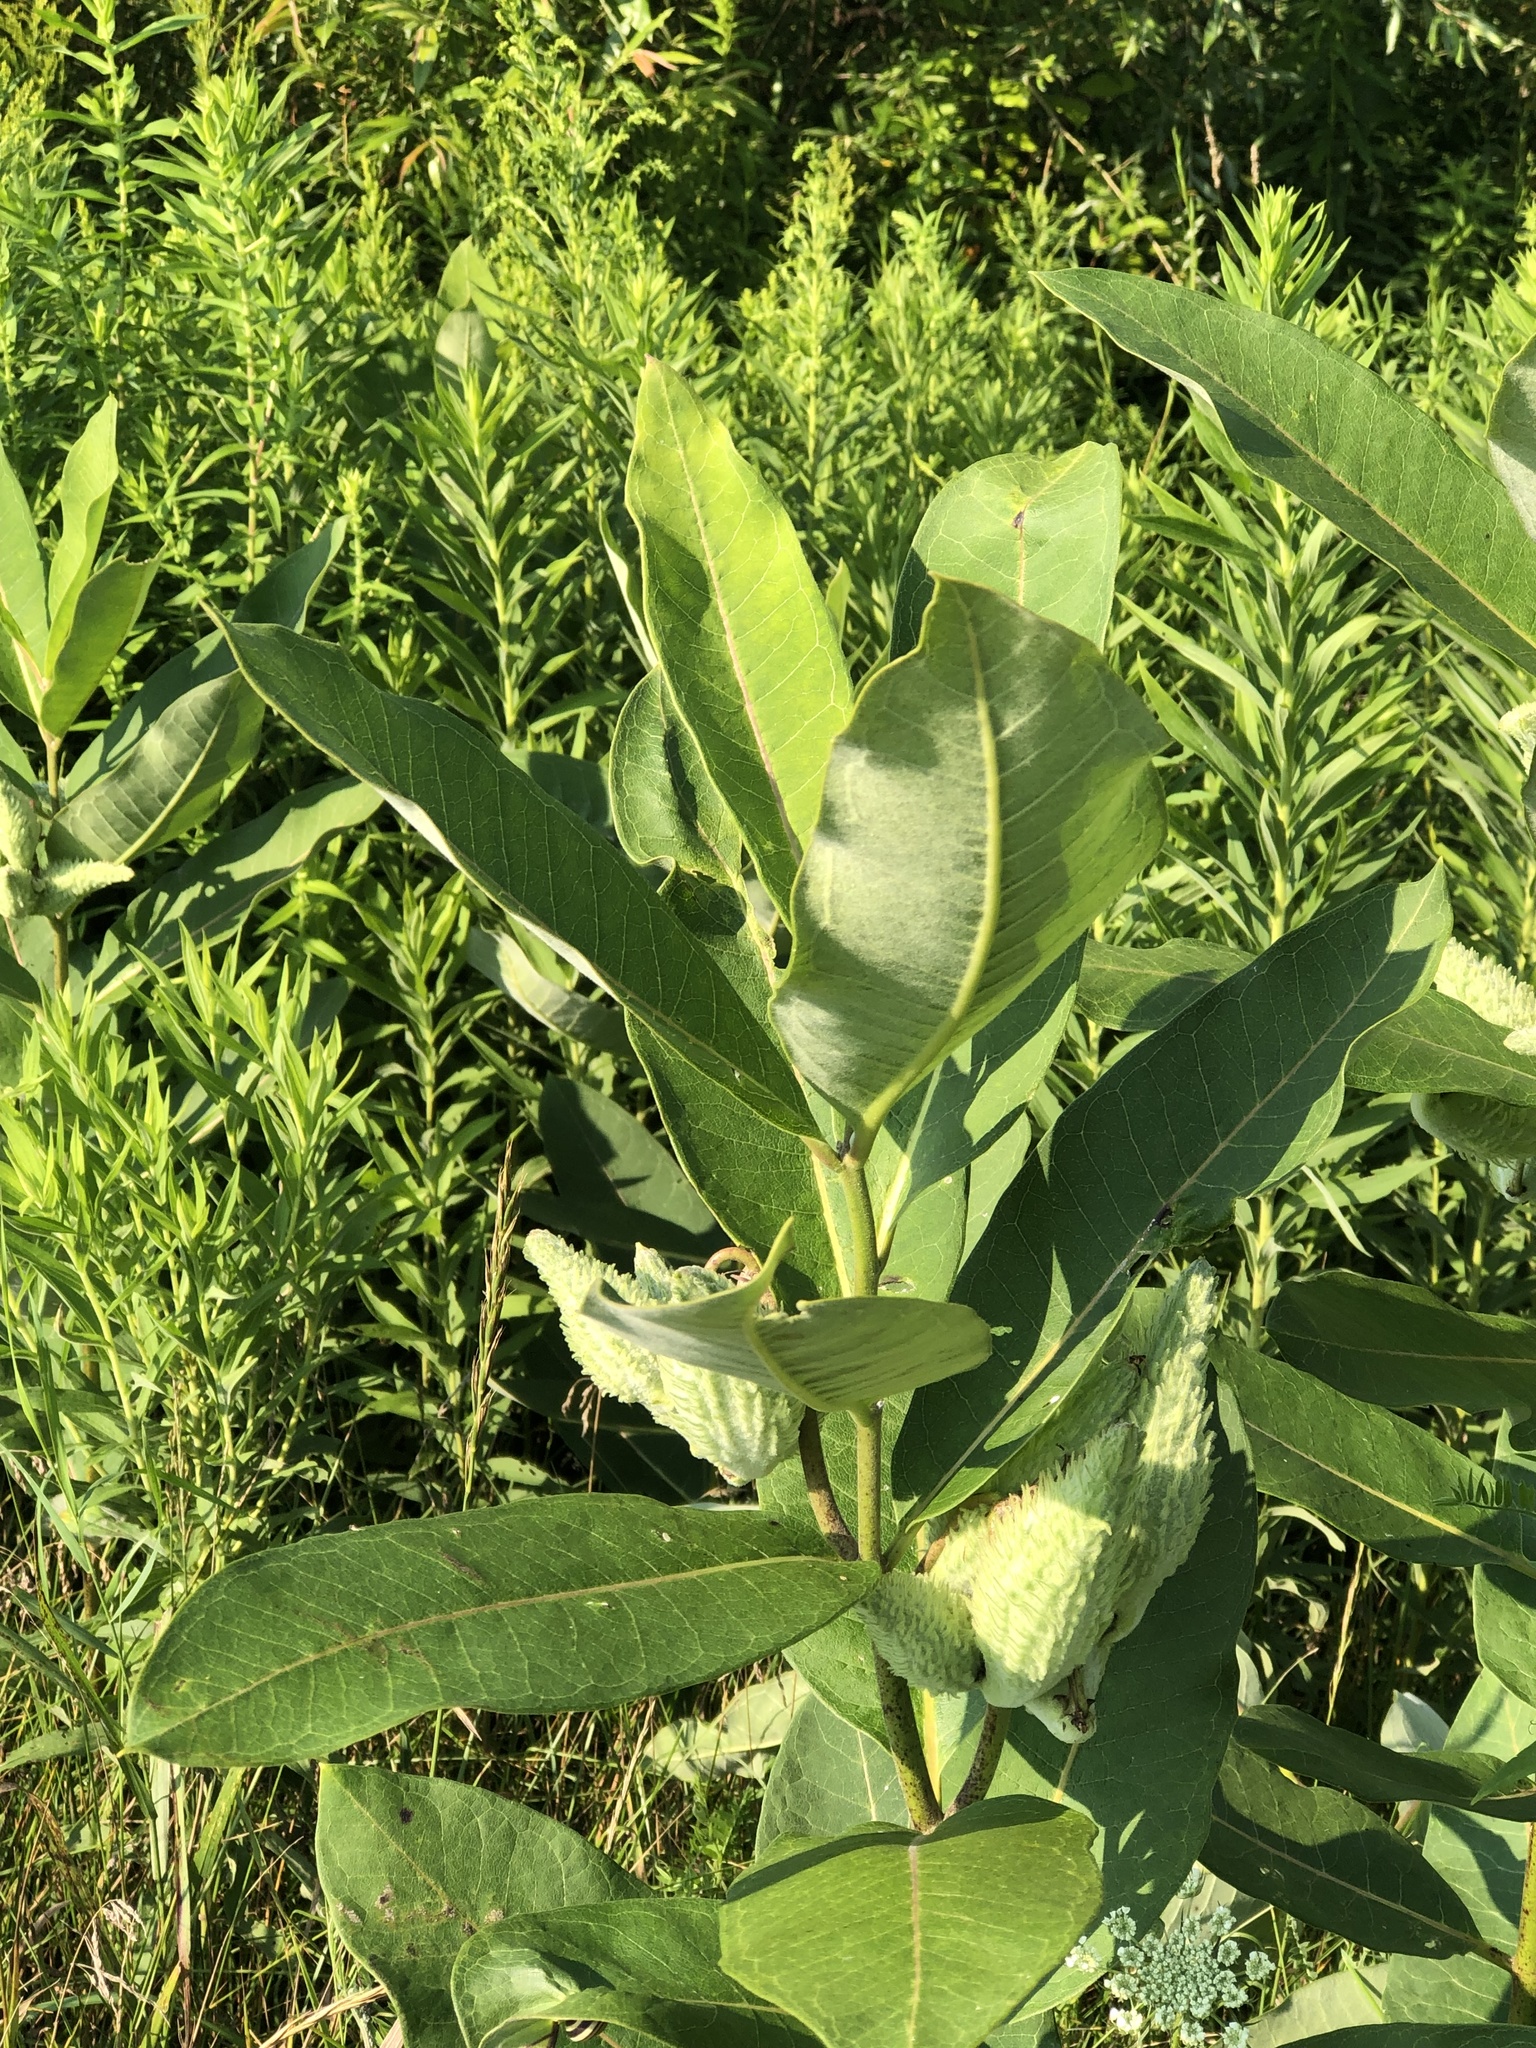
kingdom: Plantae
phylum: Tracheophyta
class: Magnoliopsida
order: Gentianales
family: Apocynaceae
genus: Asclepias
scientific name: Asclepias syriaca
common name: Common milkweed
